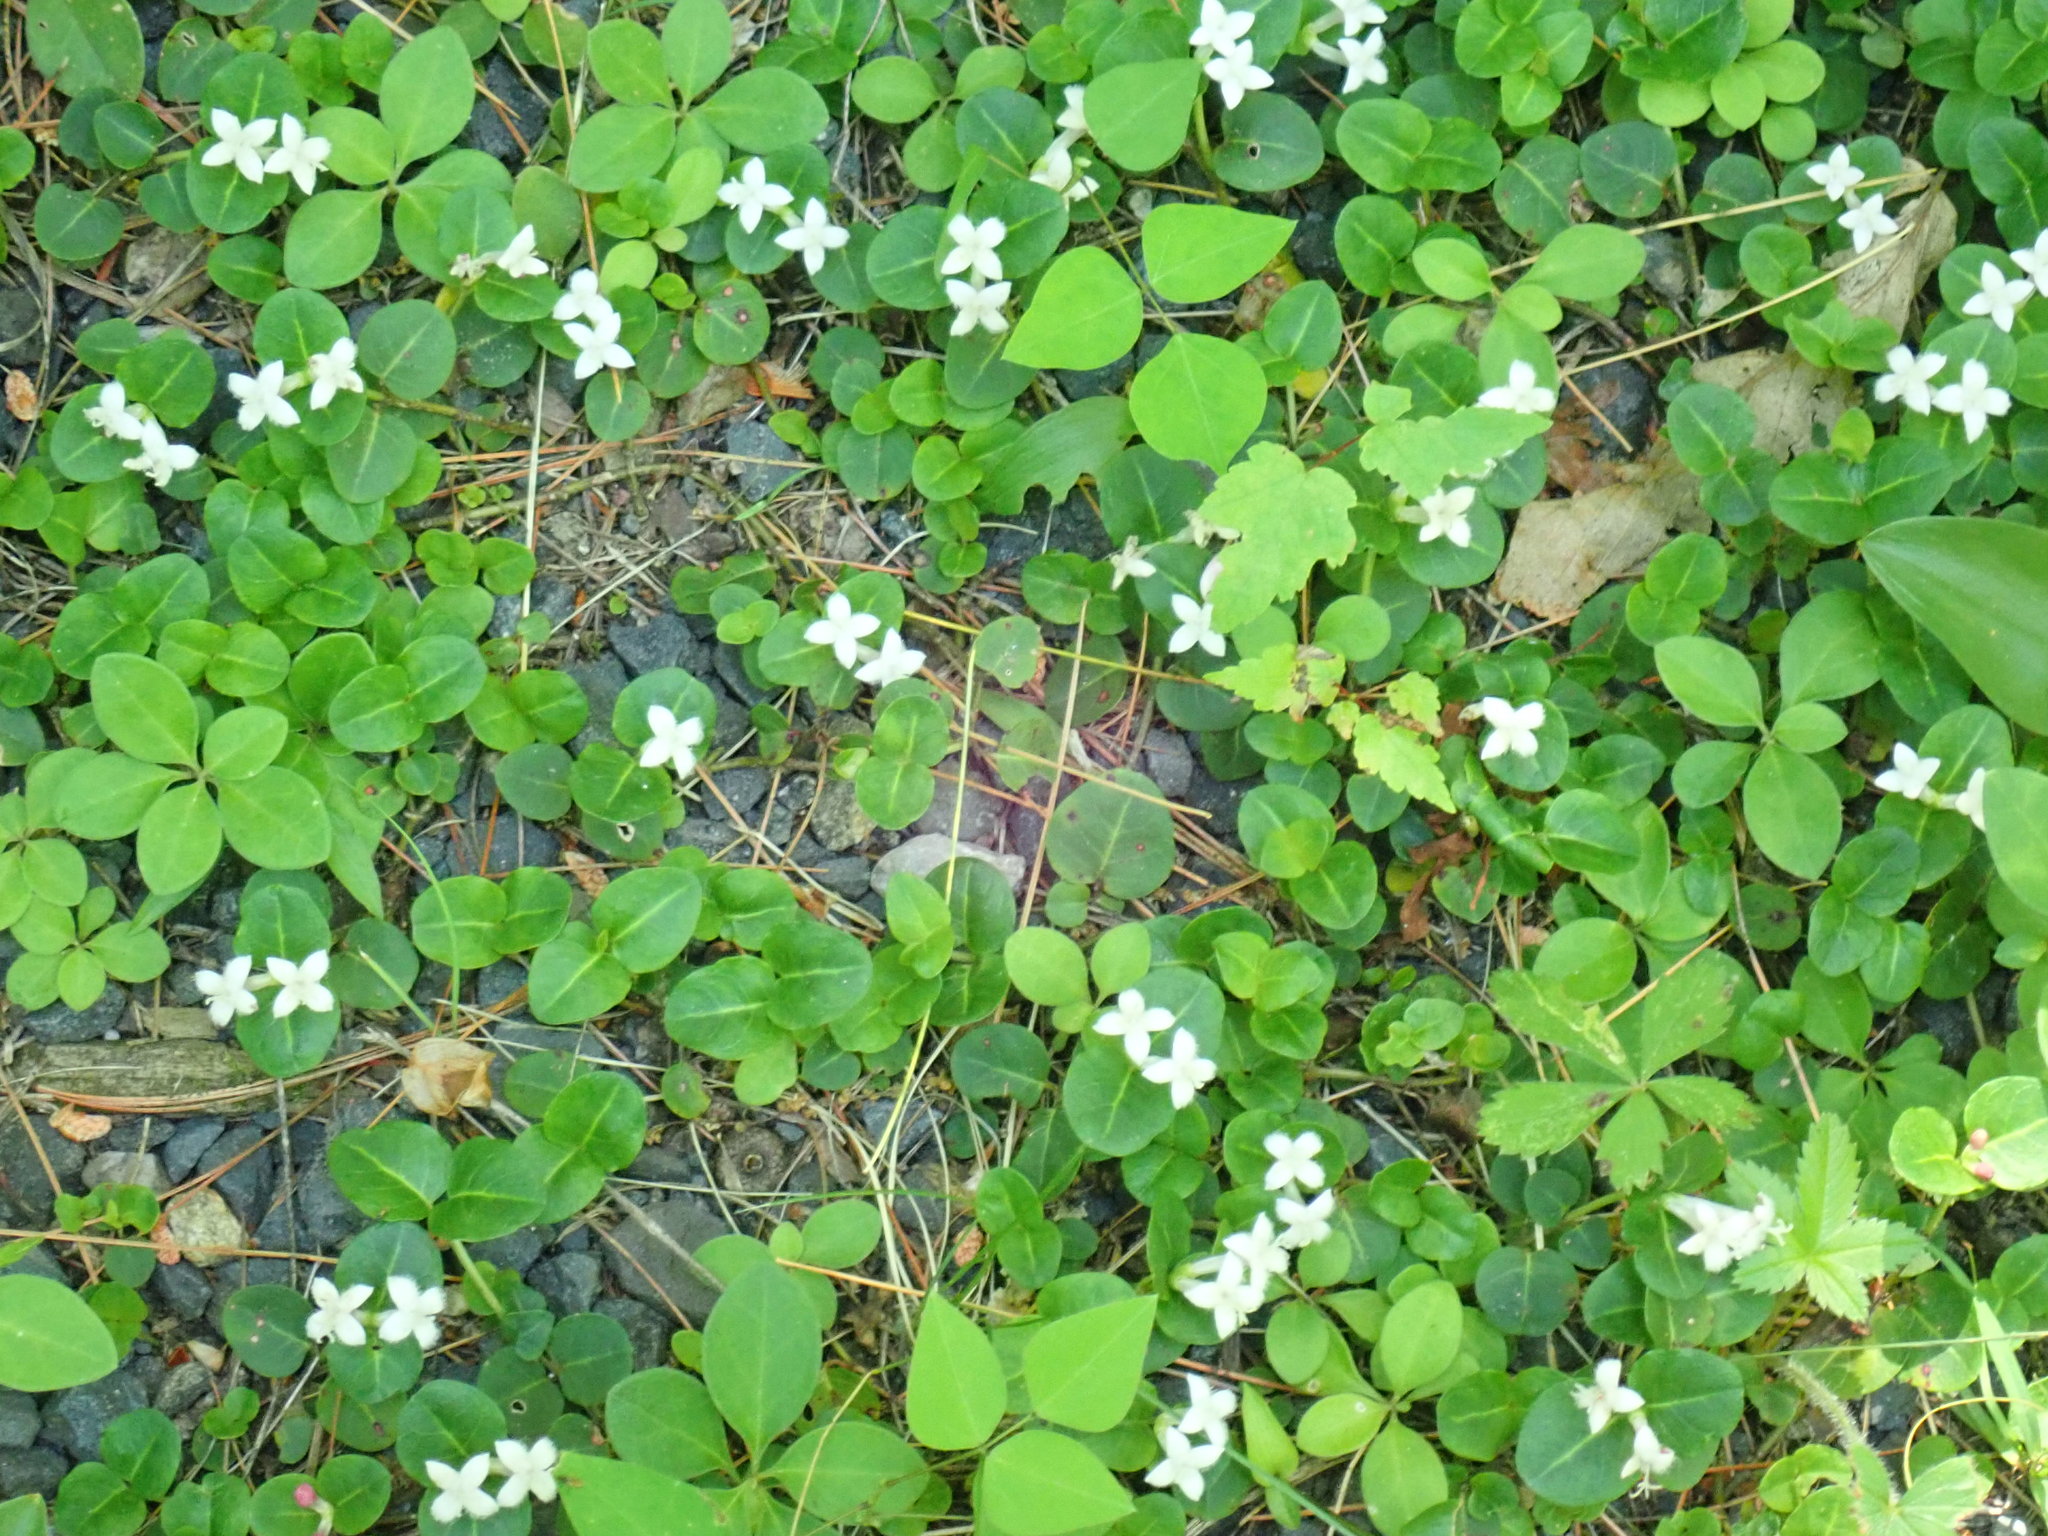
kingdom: Plantae
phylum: Tracheophyta
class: Magnoliopsida
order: Gentianales
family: Rubiaceae
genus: Mitchella
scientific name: Mitchella repens
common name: Partridge-berry
